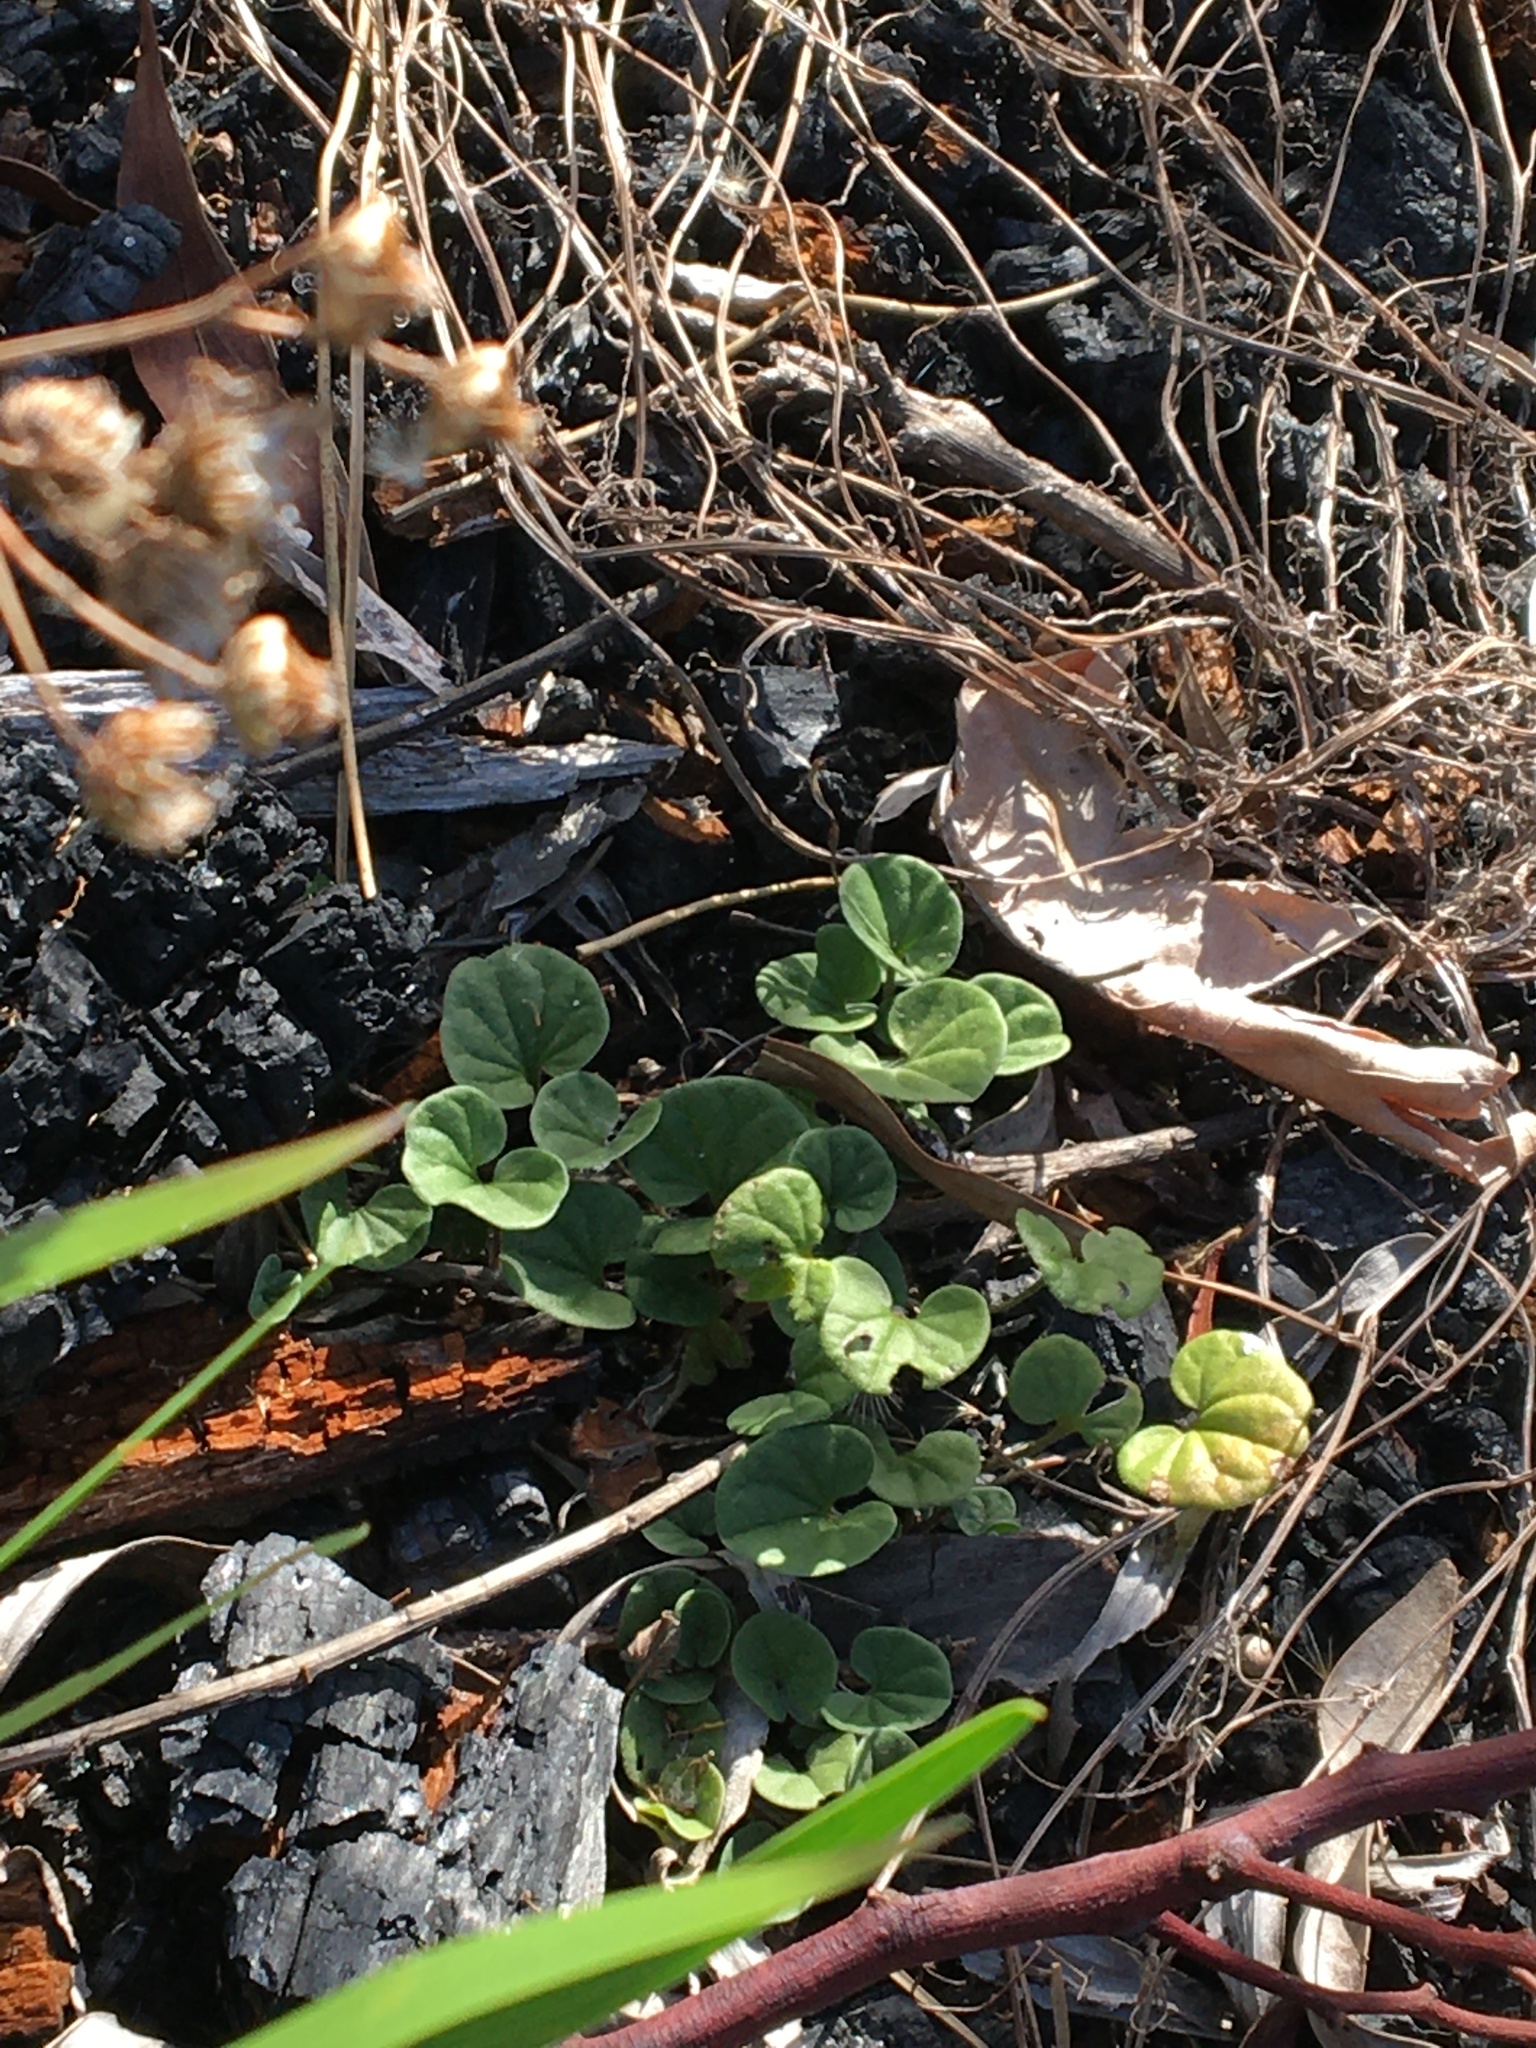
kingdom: Plantae
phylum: Tracheophyta
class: Magnoliopsida
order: Solanales
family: Convolvulaceae
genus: Dichondra
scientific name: Dichondra micrantha
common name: Kidneyweed
